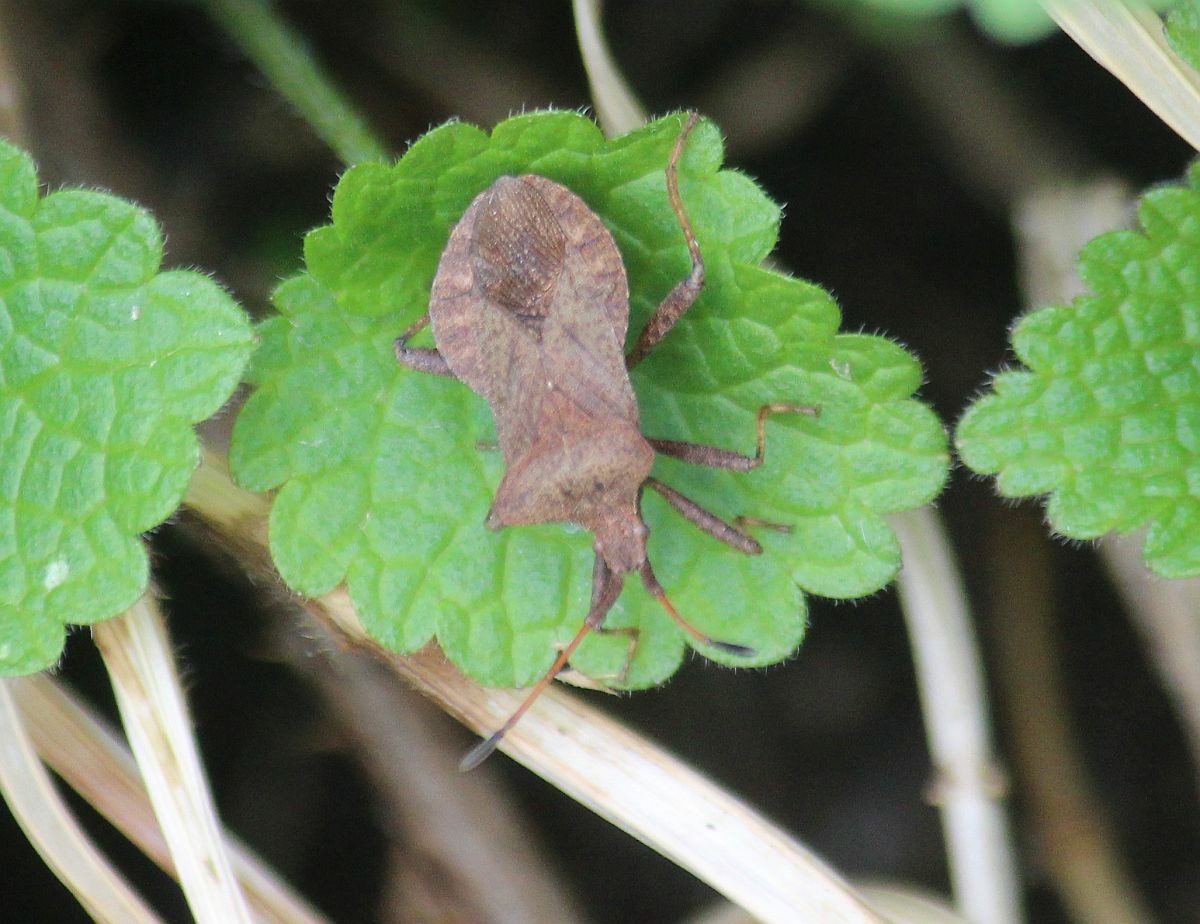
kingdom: Animalia
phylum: Arthropoda
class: Insecta
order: Hemiptera
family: Coreidae
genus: Coreus
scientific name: Coreus marginatus
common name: Dock bug
